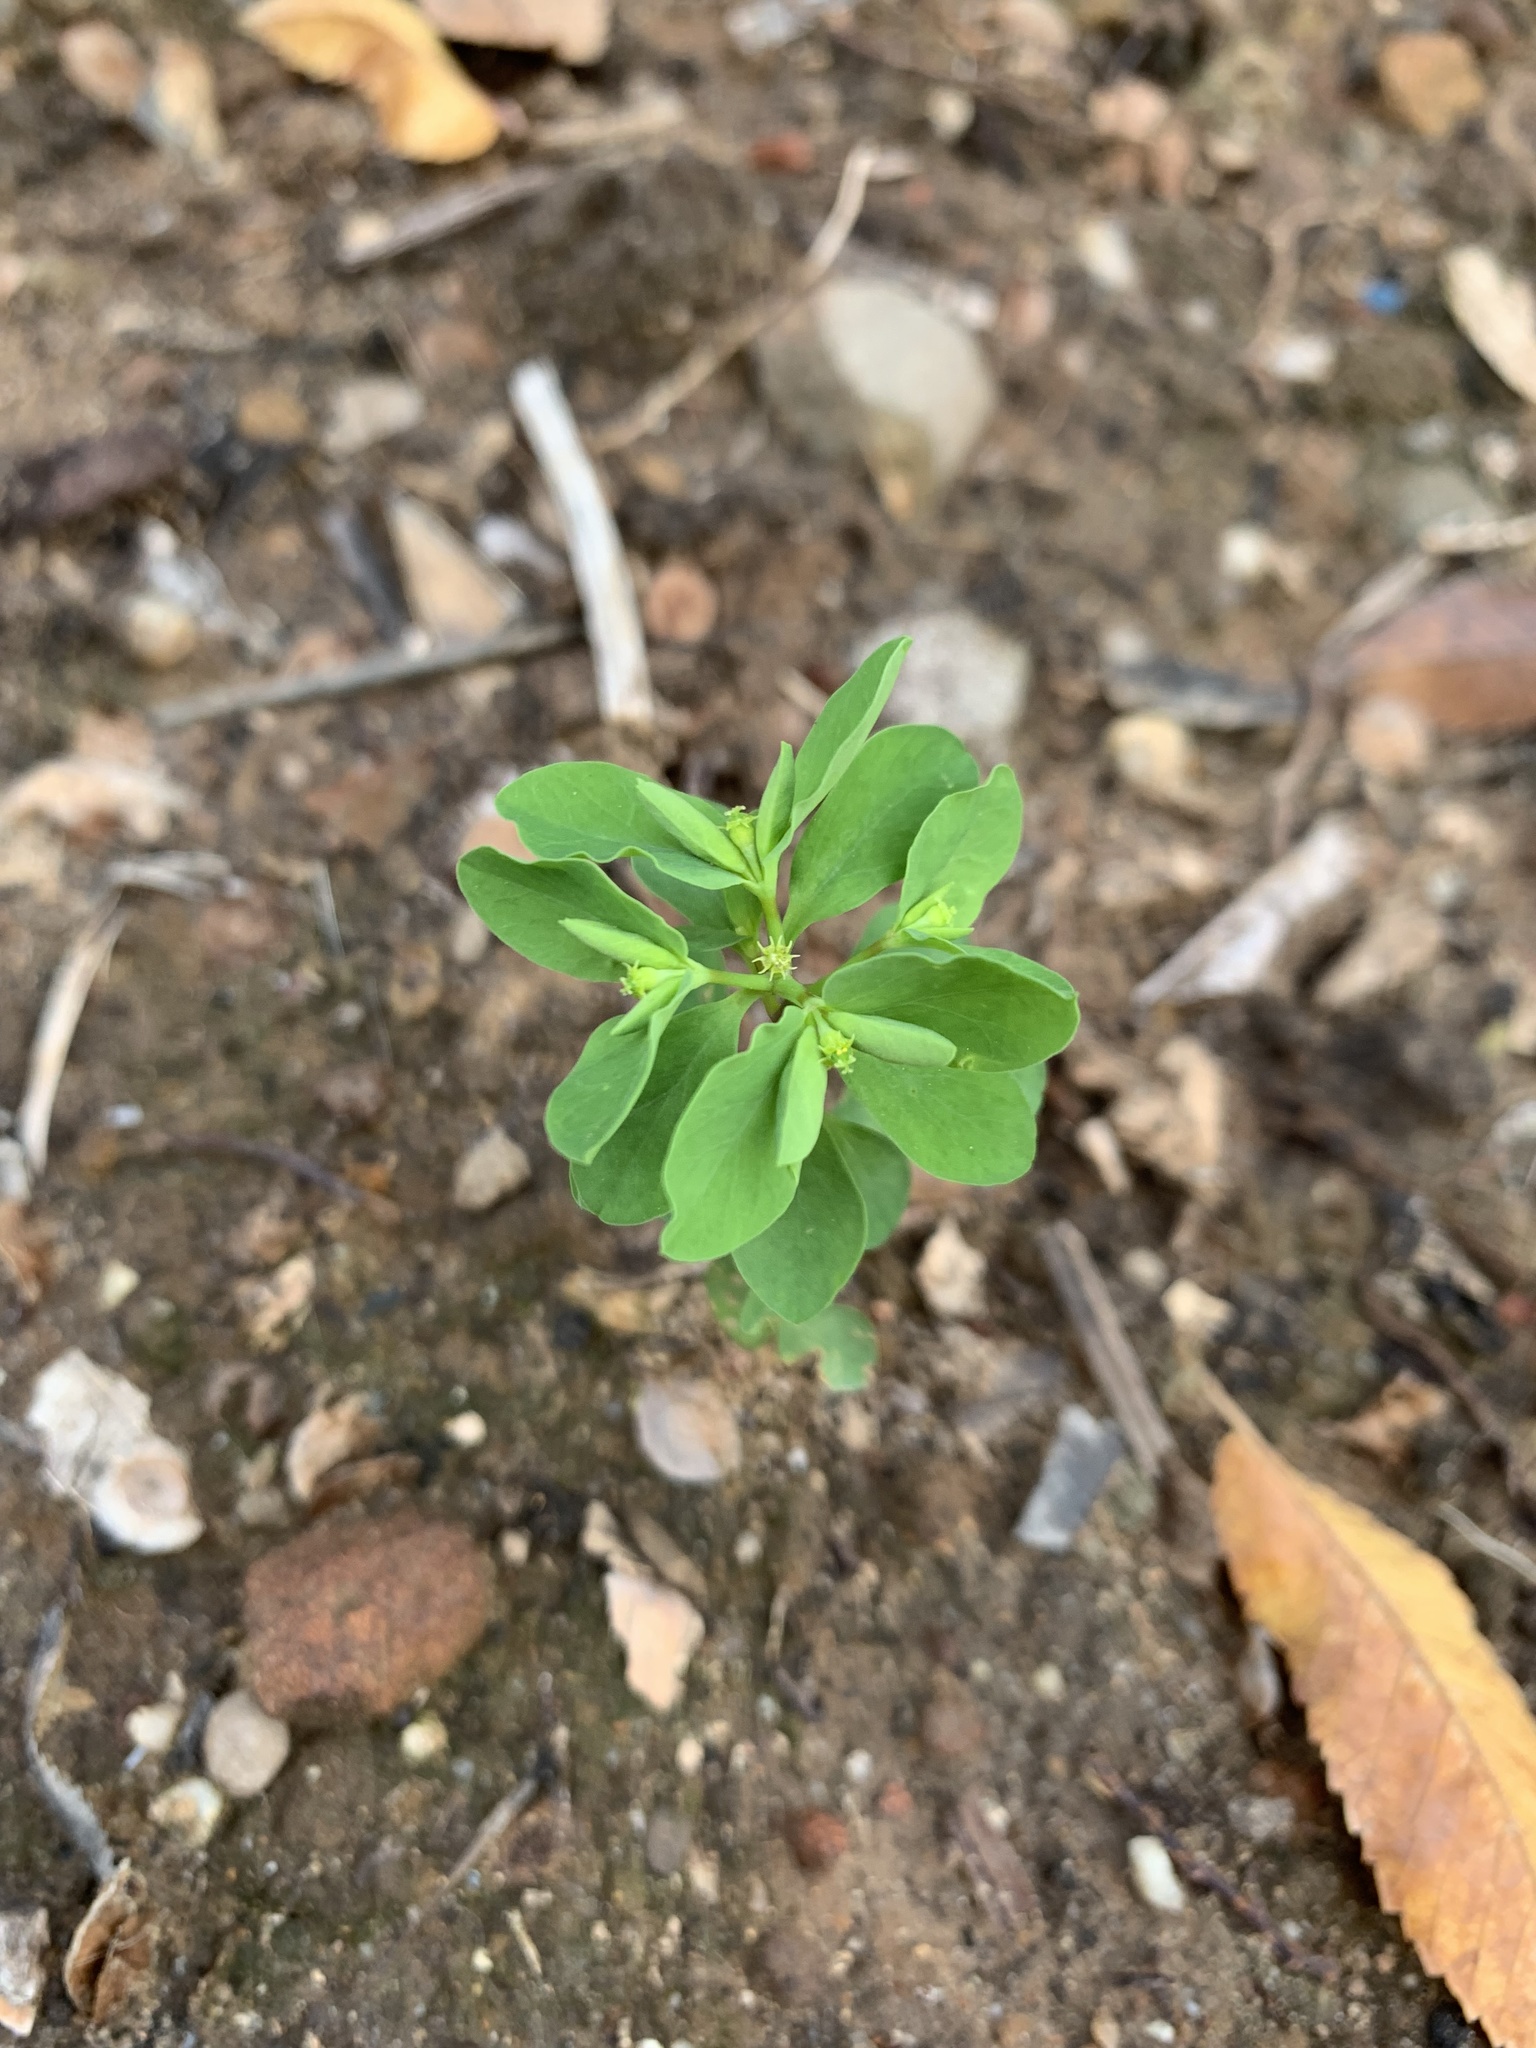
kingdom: Plantae
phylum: Tracheophyta
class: Magnoliopsida
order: Malpighiales
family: Euphorbiaceae
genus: Euphorbia
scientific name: Euphorbia peplus
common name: Petty spurge
